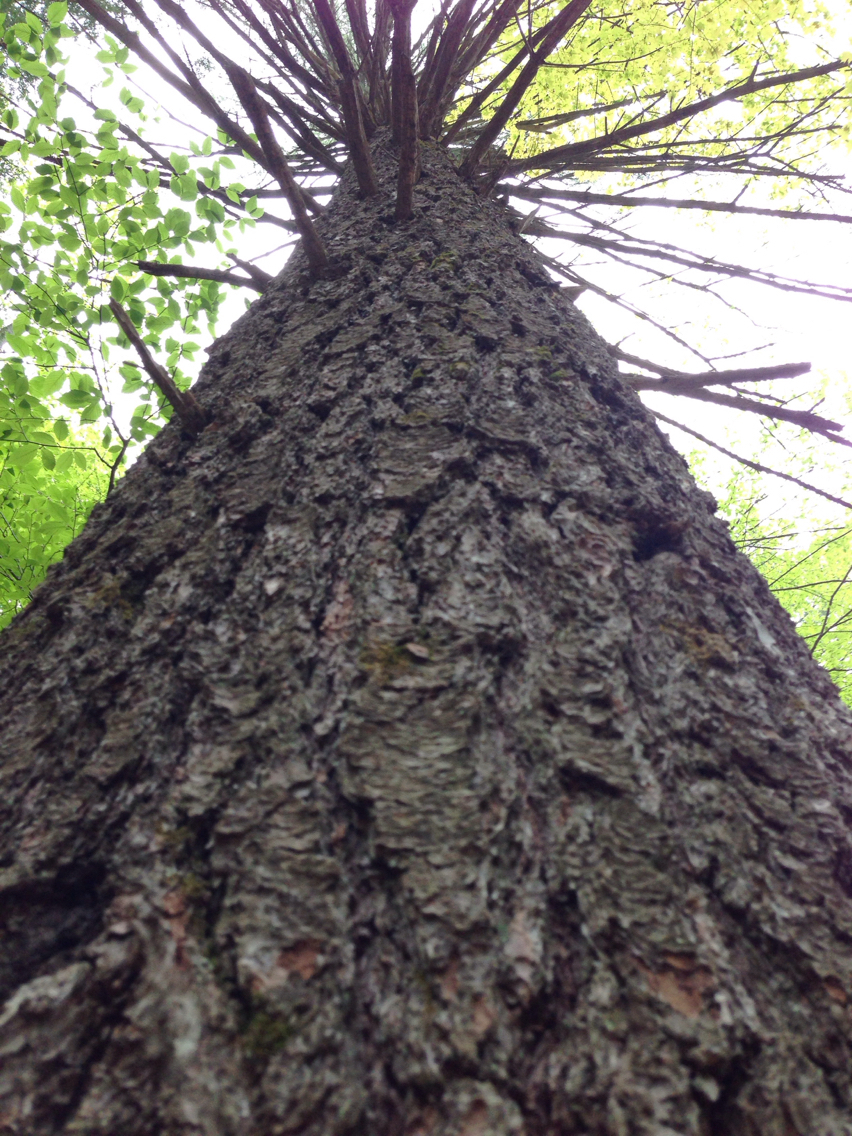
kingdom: Plantae
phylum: Tracheophyta
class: Pinopsida
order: Pinales
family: Pinaceae
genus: Pinus
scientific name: Pinus strobus
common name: Weymouth pine
